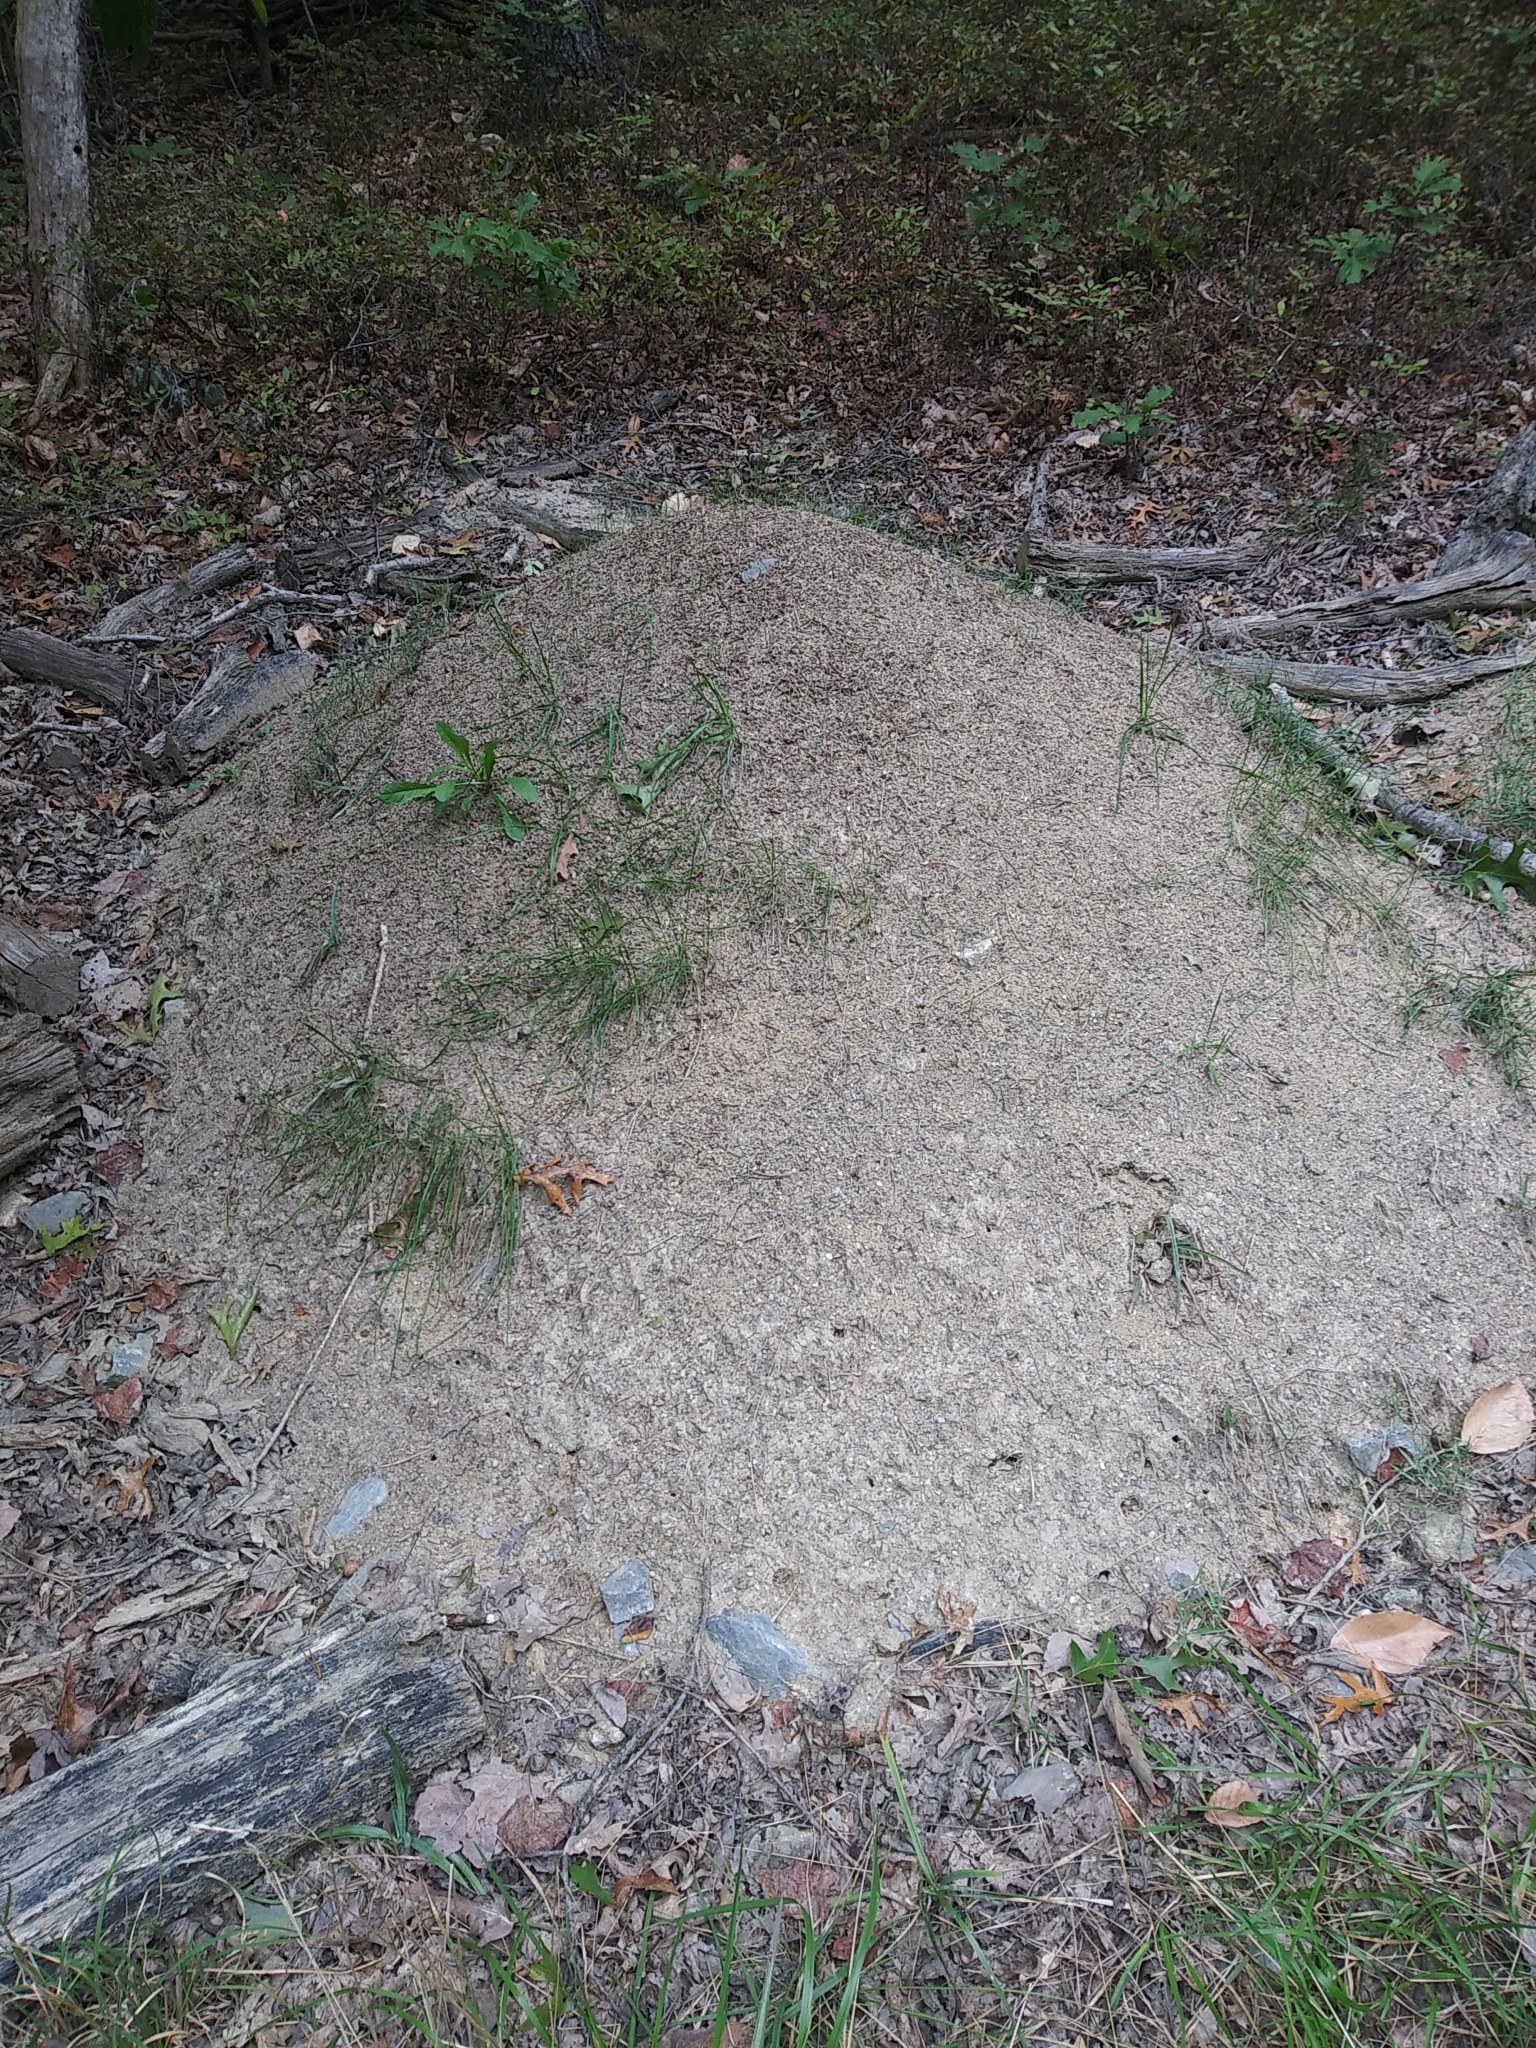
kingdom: Animalia
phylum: Arthropoda
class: Insecta
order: Hymenoptera
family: Formicidae
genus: Formica
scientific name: Formica exsectoides
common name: Allegheny mound ant
